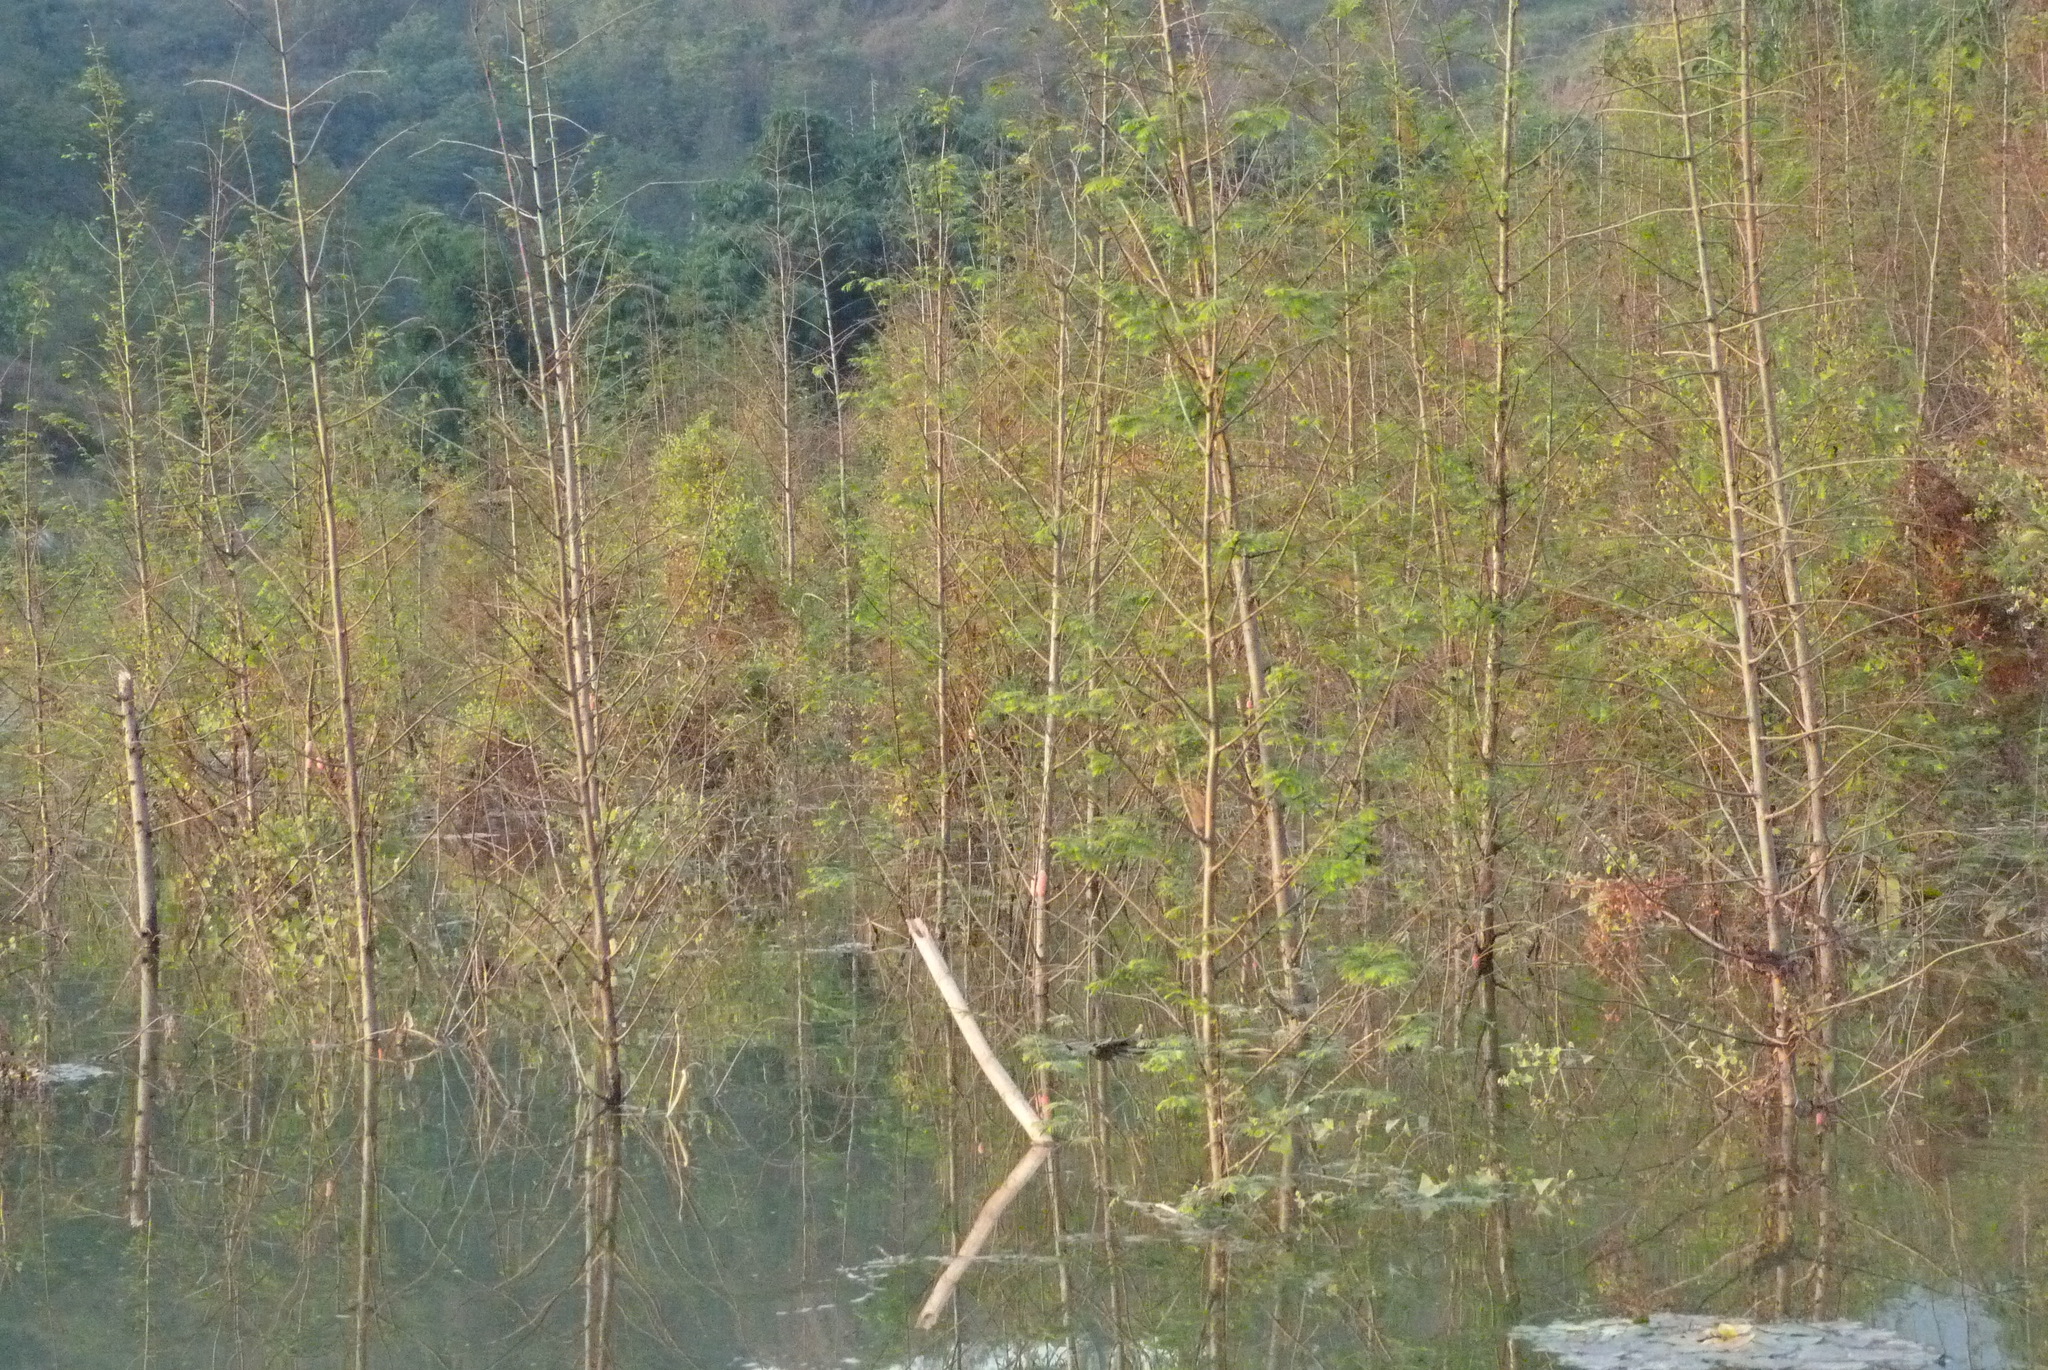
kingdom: Plantae
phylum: Tracheophyta
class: Pinopsida
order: Pinales
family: Cupressaceae
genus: Metasequoia
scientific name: Metasequoia glyptostroboides
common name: Dawn redwood
